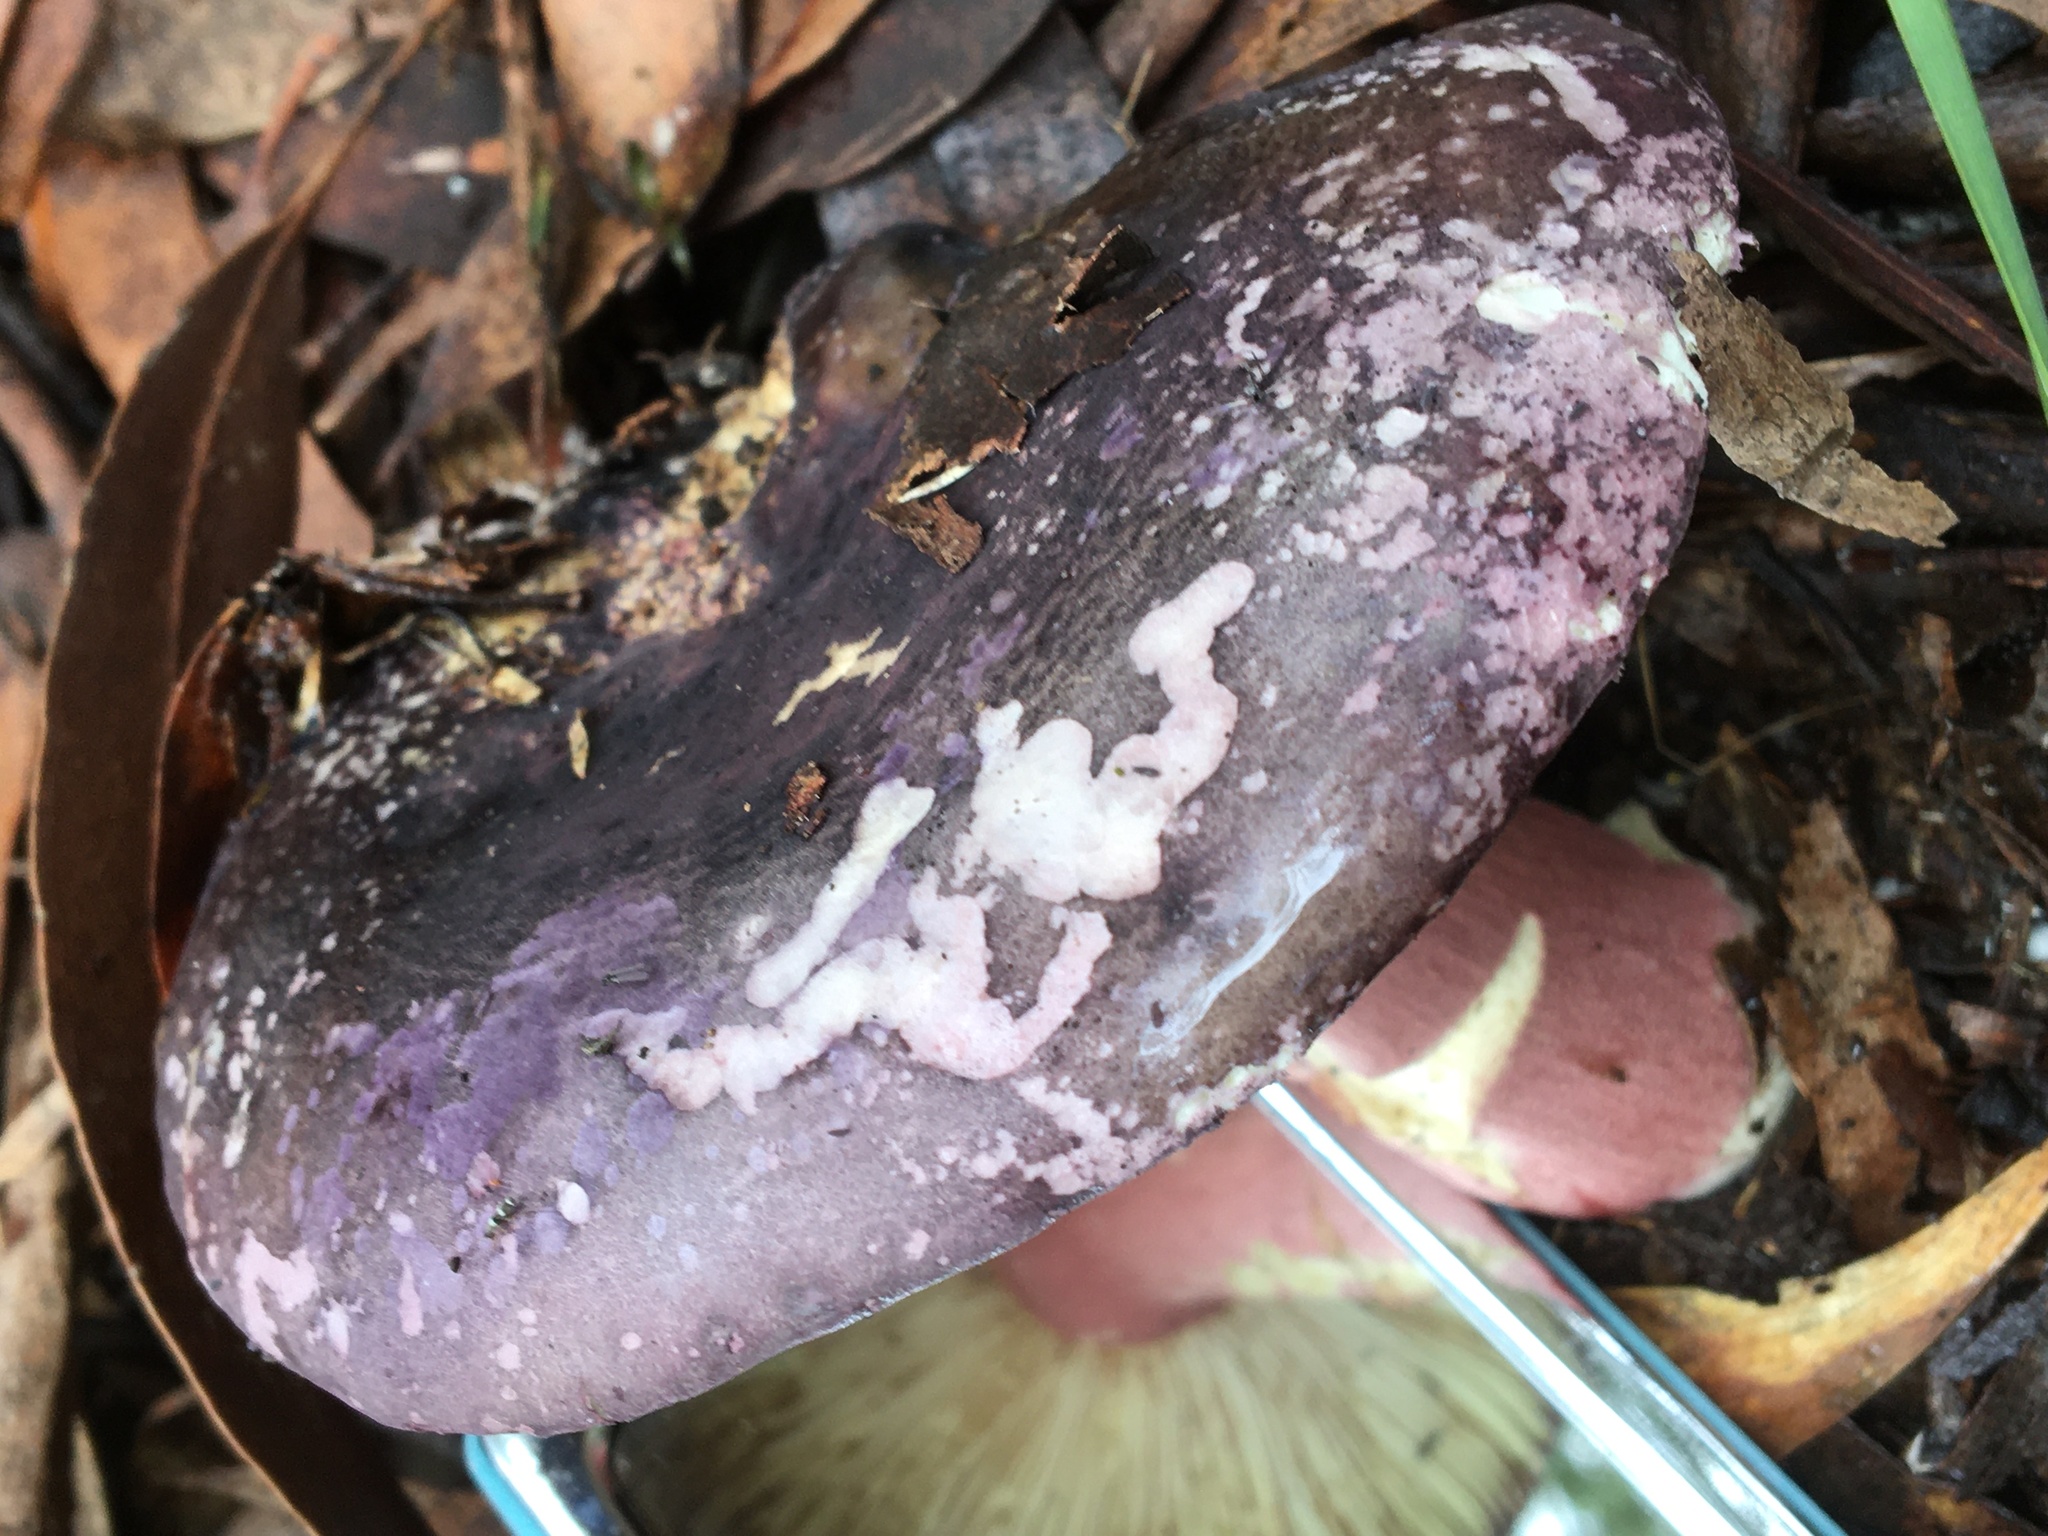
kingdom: Fungi
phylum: Basidiomycota
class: Agaricomycetes
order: Russulales
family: Russulaceae
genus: Russula
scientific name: Russula lenkunya
